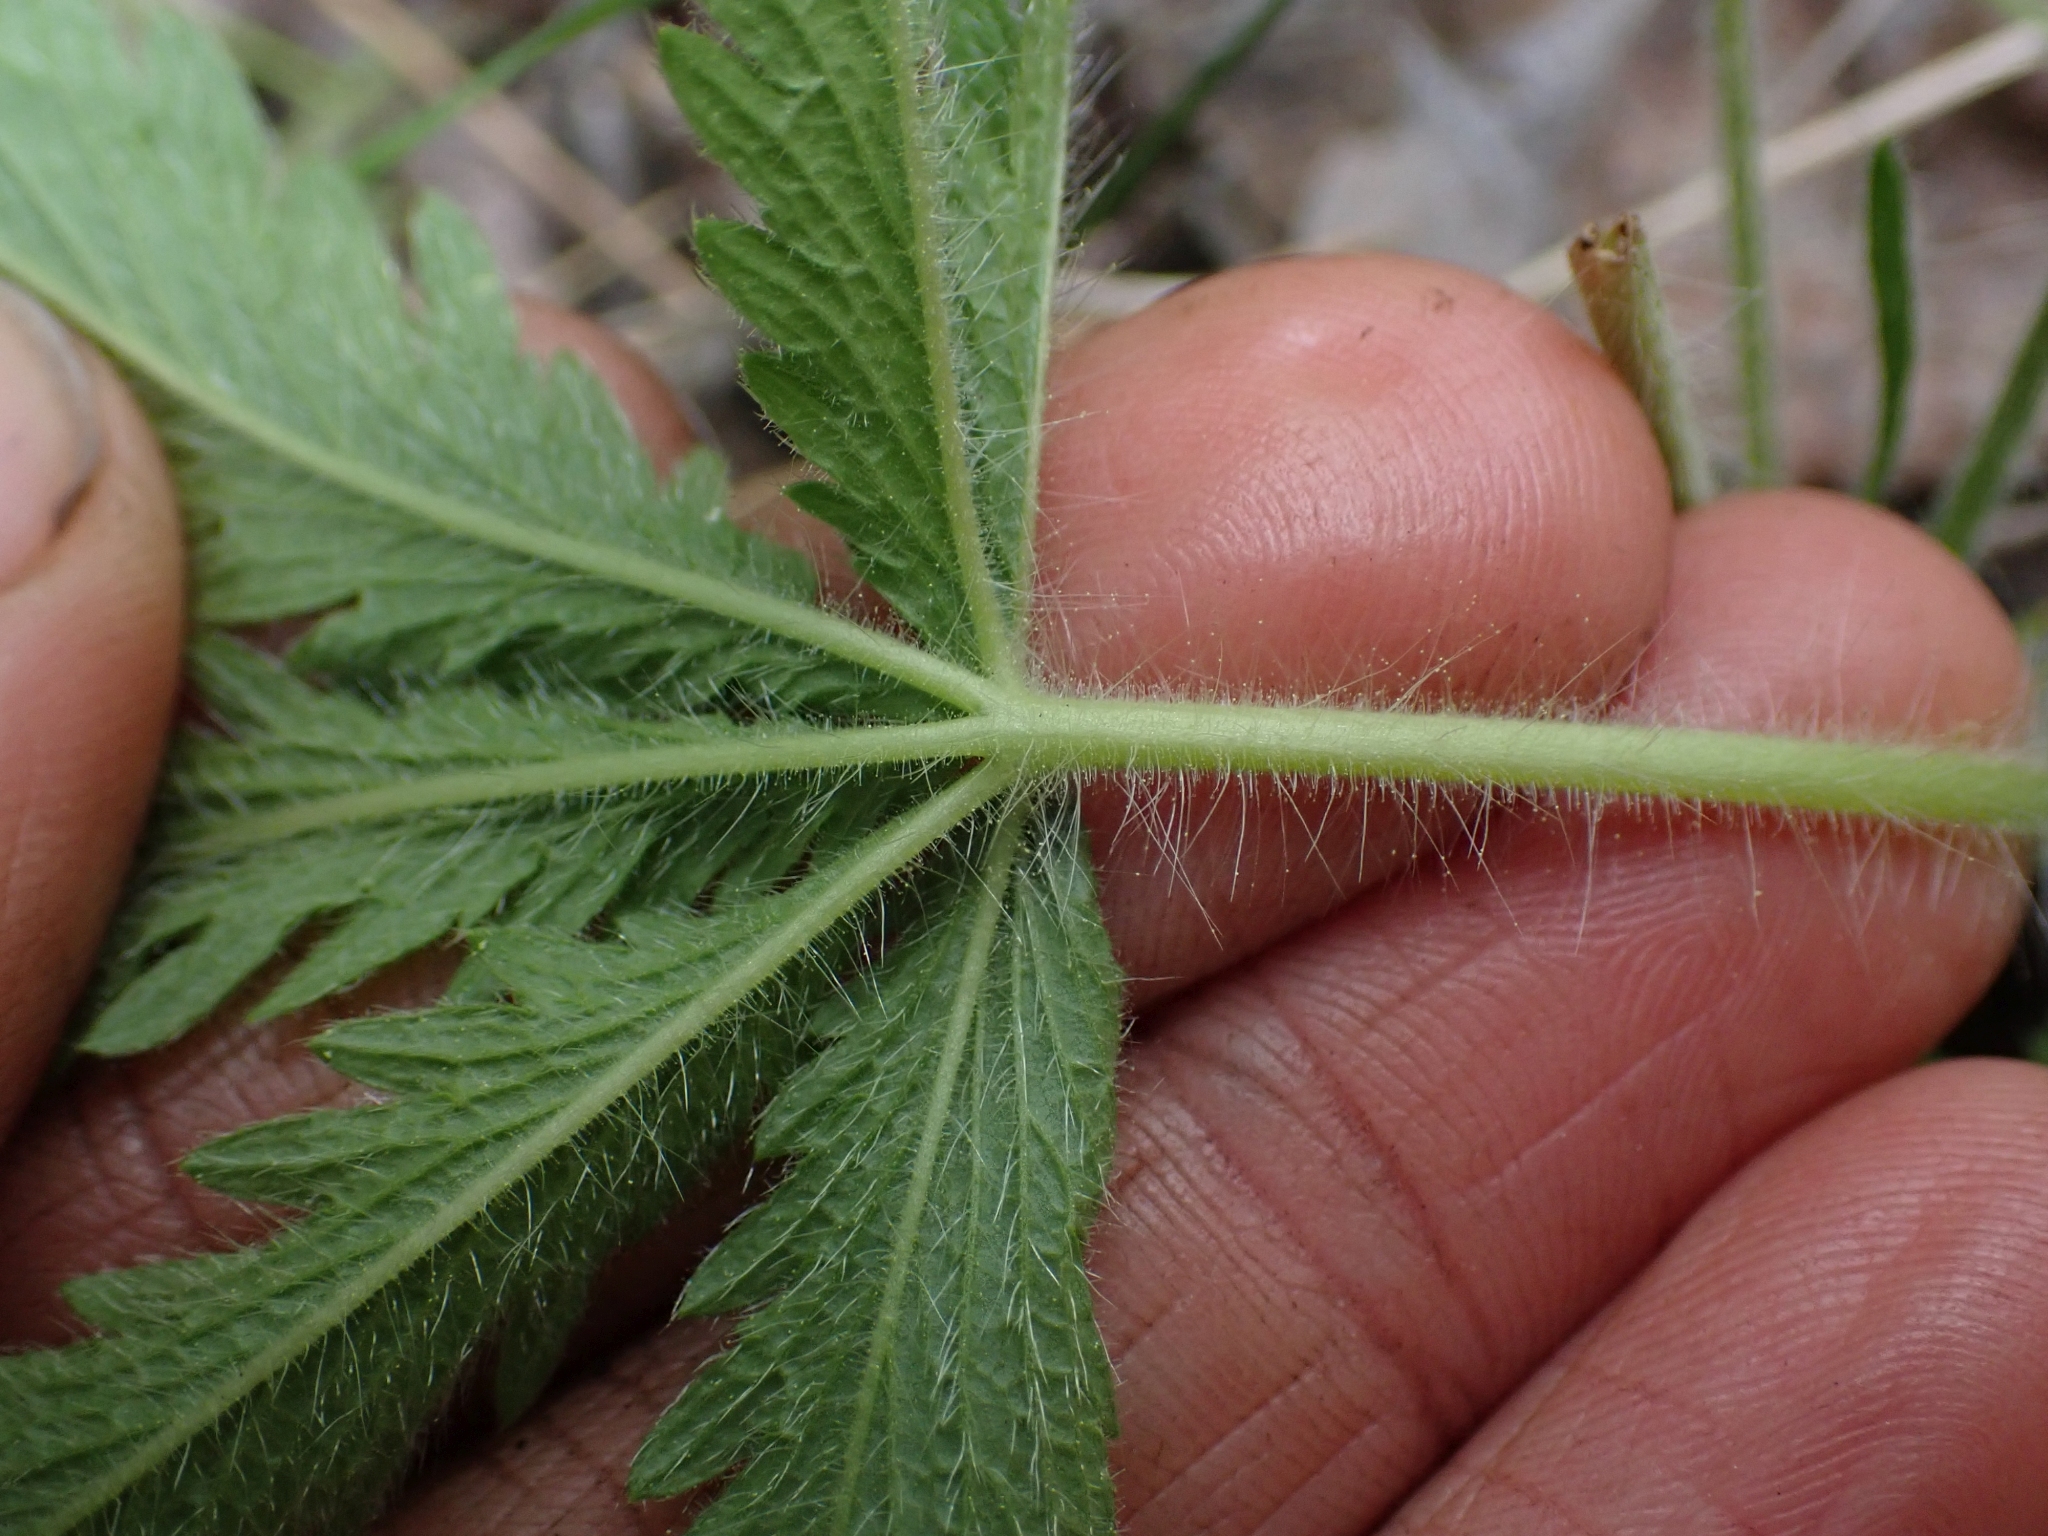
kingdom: Plantae
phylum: Tracheophyta
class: Magnoliopsida
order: Rosales
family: Rosaceae
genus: Potentilla
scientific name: Potentilla recta
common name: Sulphur cinquefoil
